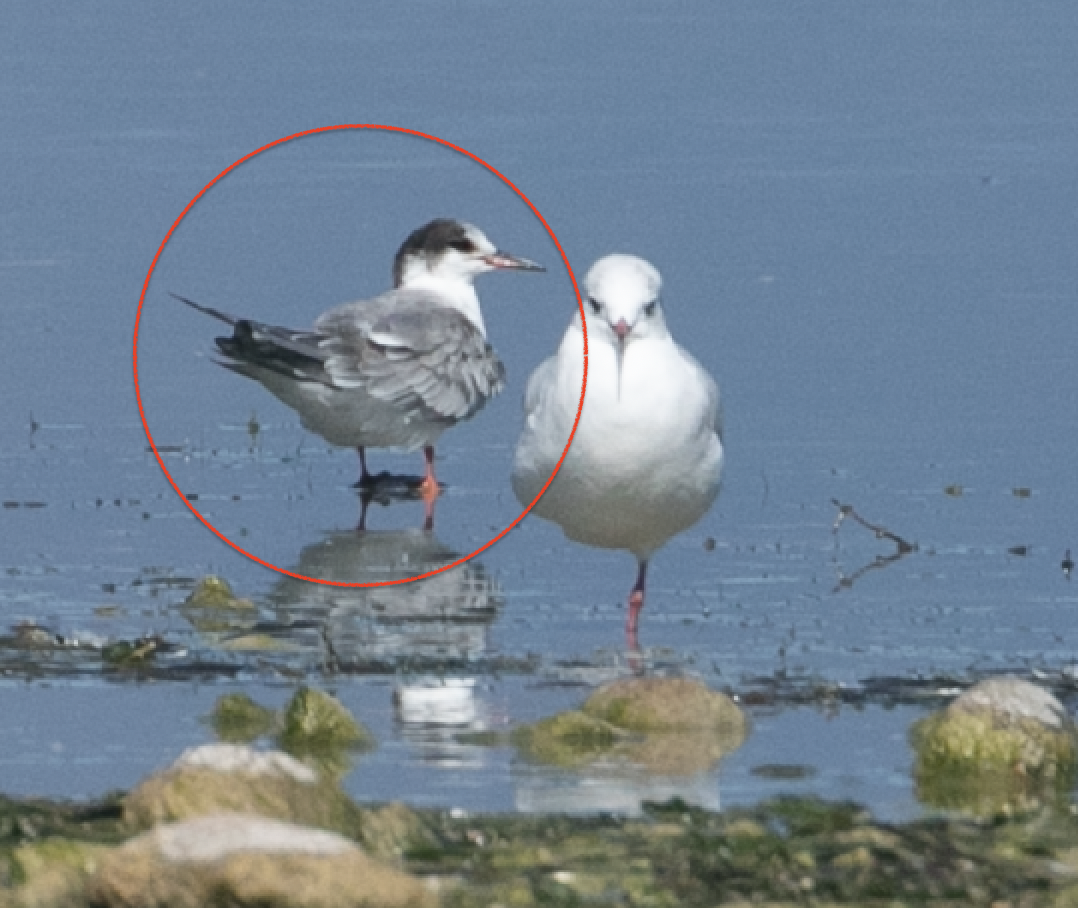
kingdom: Animalia
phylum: Chordata
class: Aves
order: Charadriiformes
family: Laridae
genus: Sterna
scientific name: Sterna hirundo
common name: Common tern
